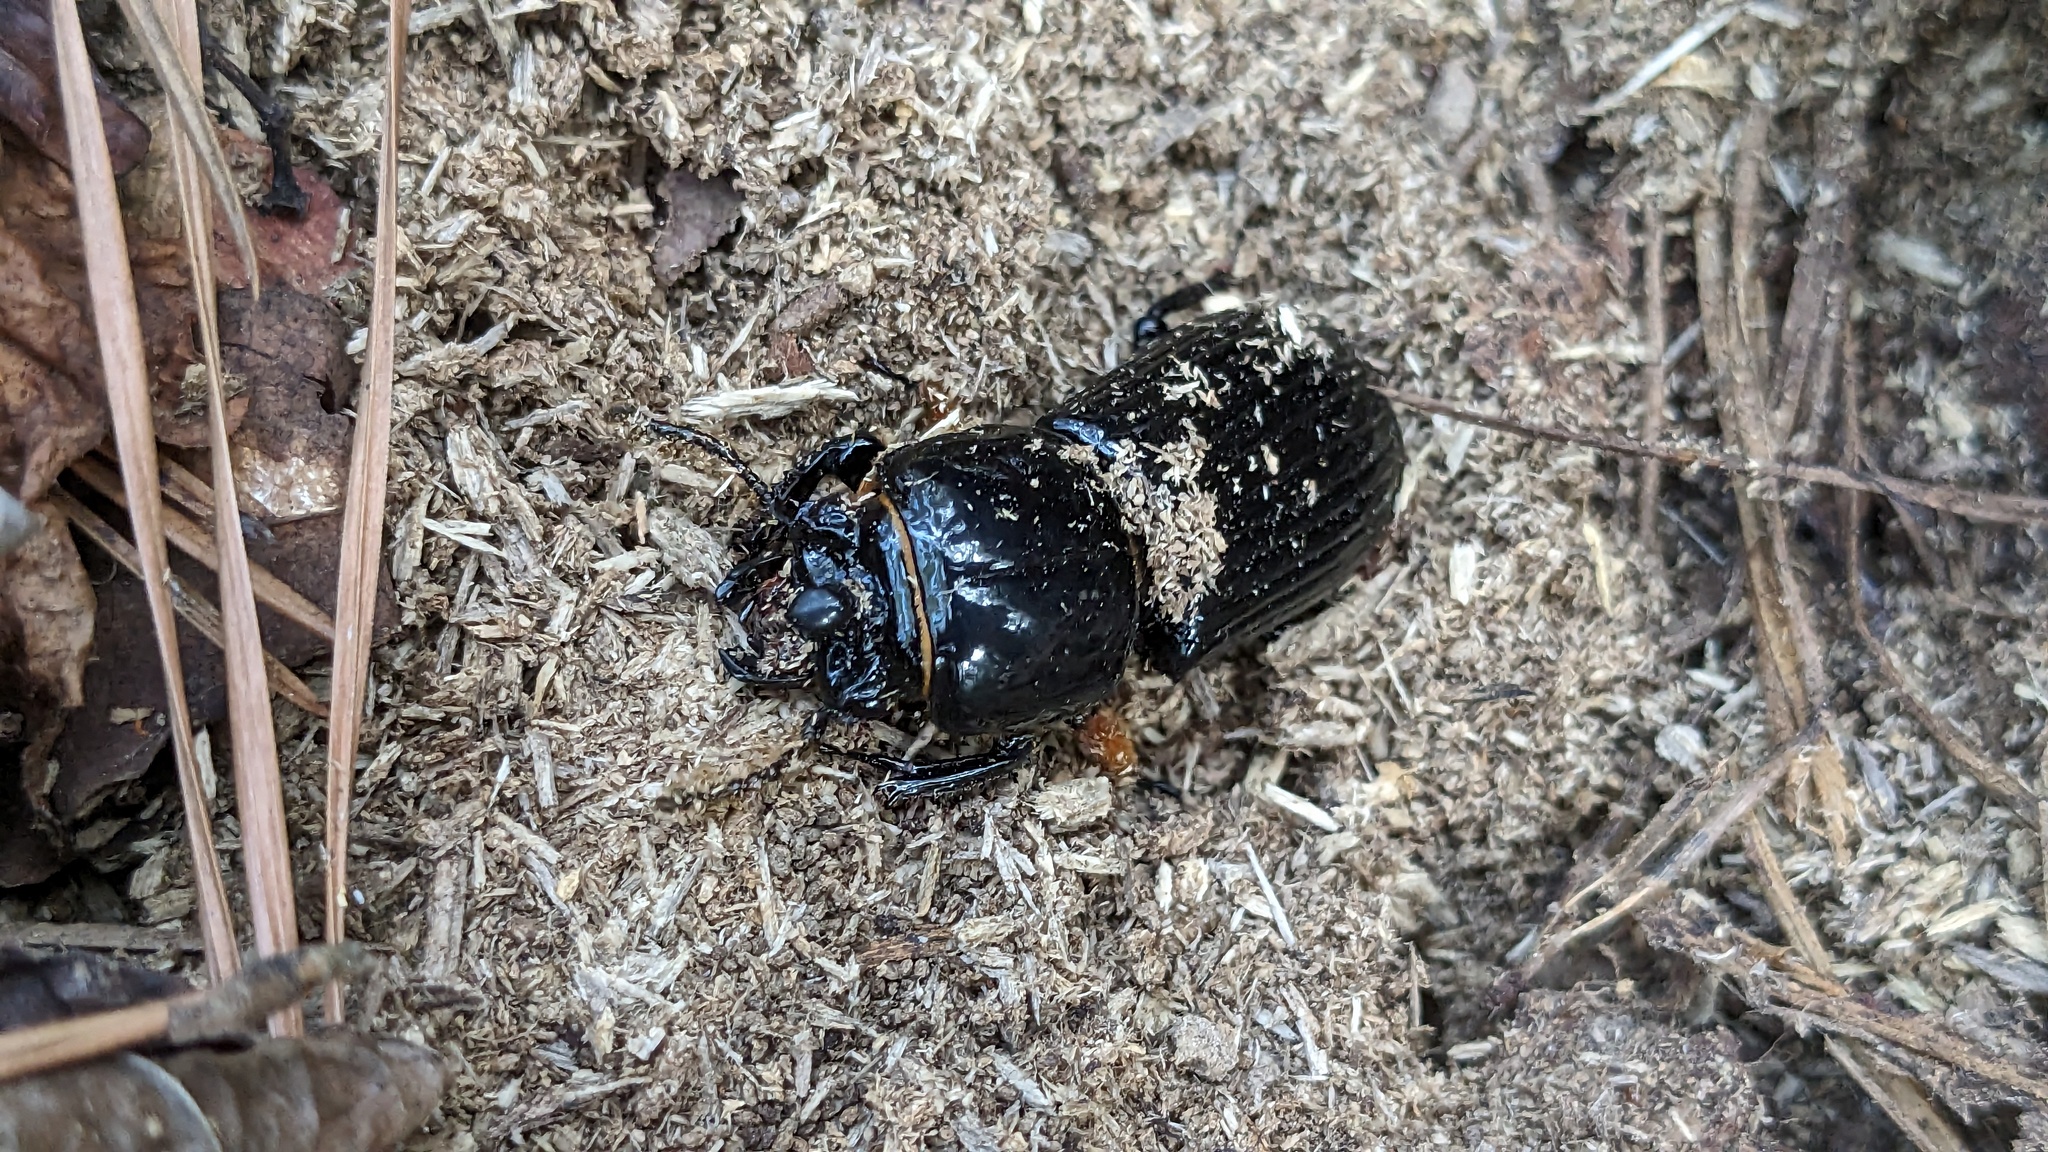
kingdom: Animalia
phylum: Arthropoda
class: Insecta
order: Coleoptera
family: Passalidae
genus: Odontotaenius
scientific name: Odontotaenius disjunctus
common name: Patent leather beetle
